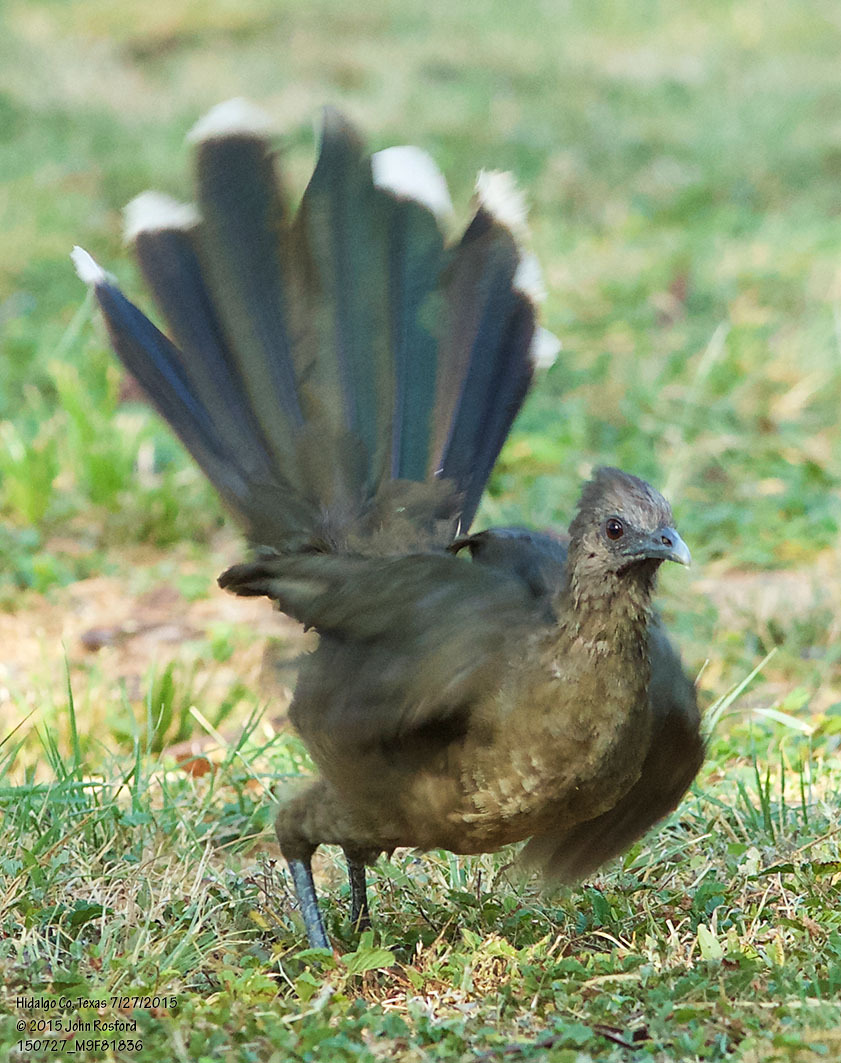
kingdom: Animalia
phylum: Chordata
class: Aves
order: Galliformes
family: Cracidae
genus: Ortalis
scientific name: Ortalis vetula
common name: Plain chachalaca
